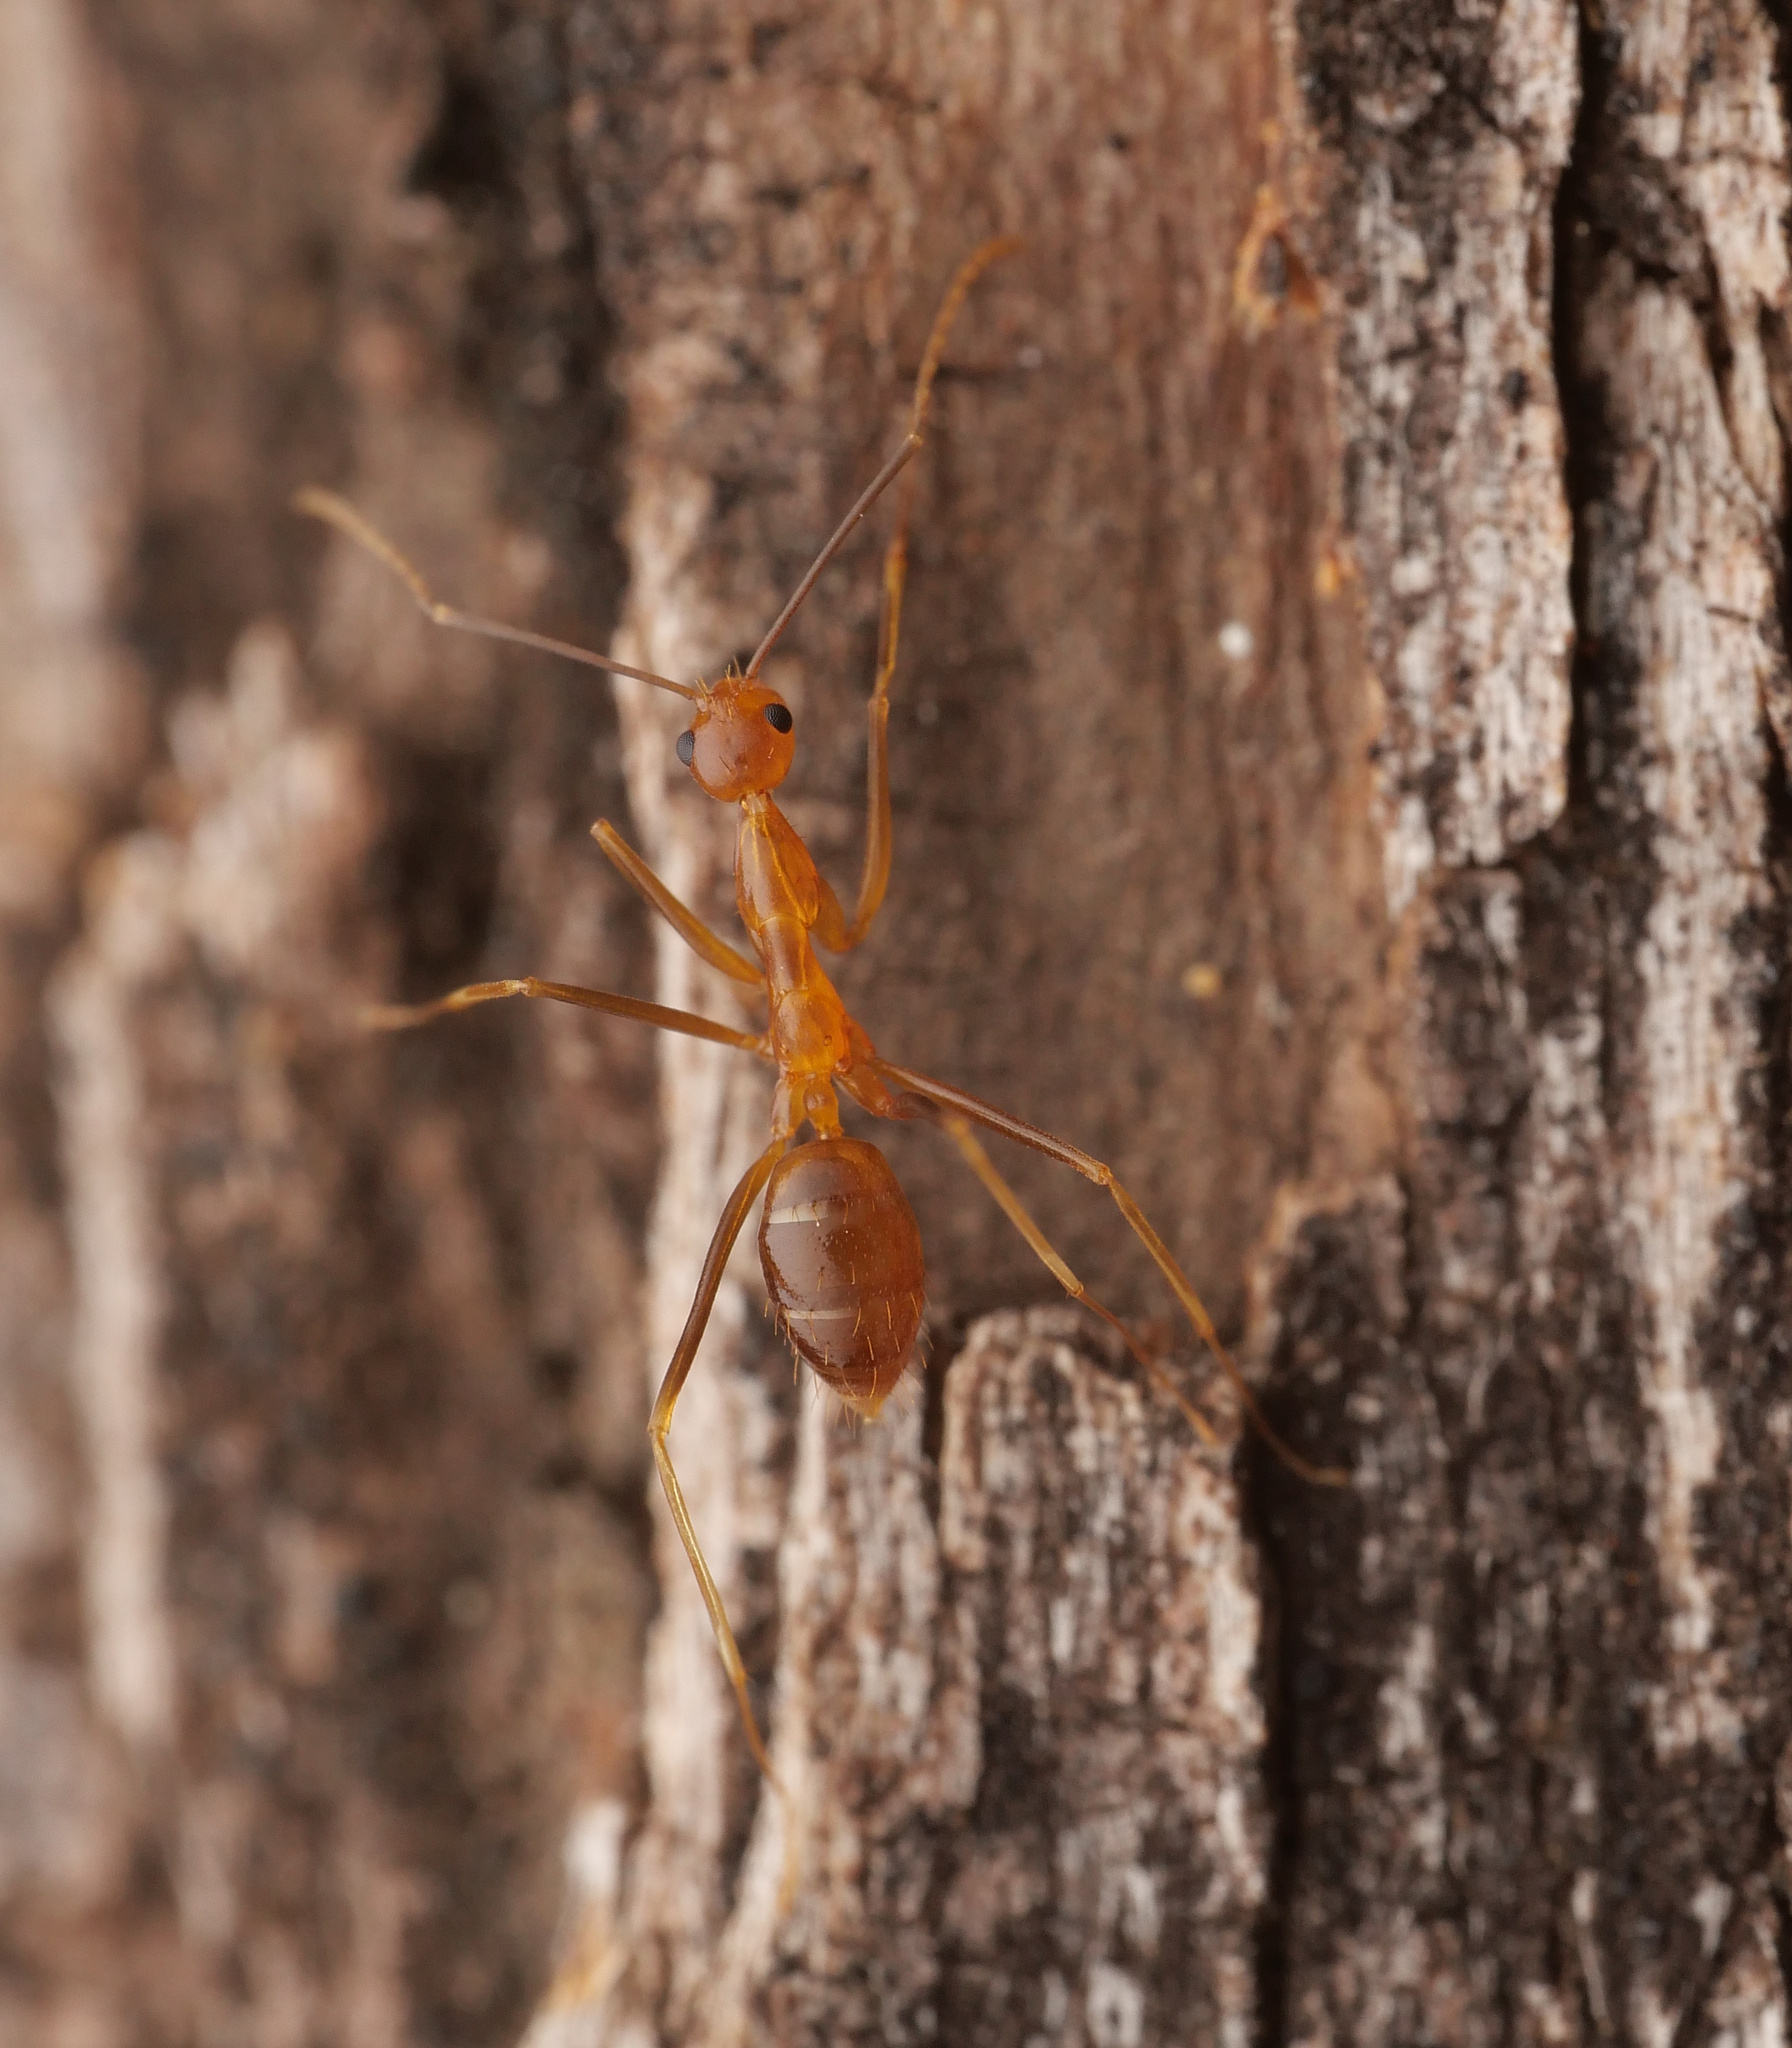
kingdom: Animalia
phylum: Arthropoda
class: Insecta
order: Hymenoptera
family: Formicidae
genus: Anoplolepis
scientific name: Anoplolepis gracilipes
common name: Ant
